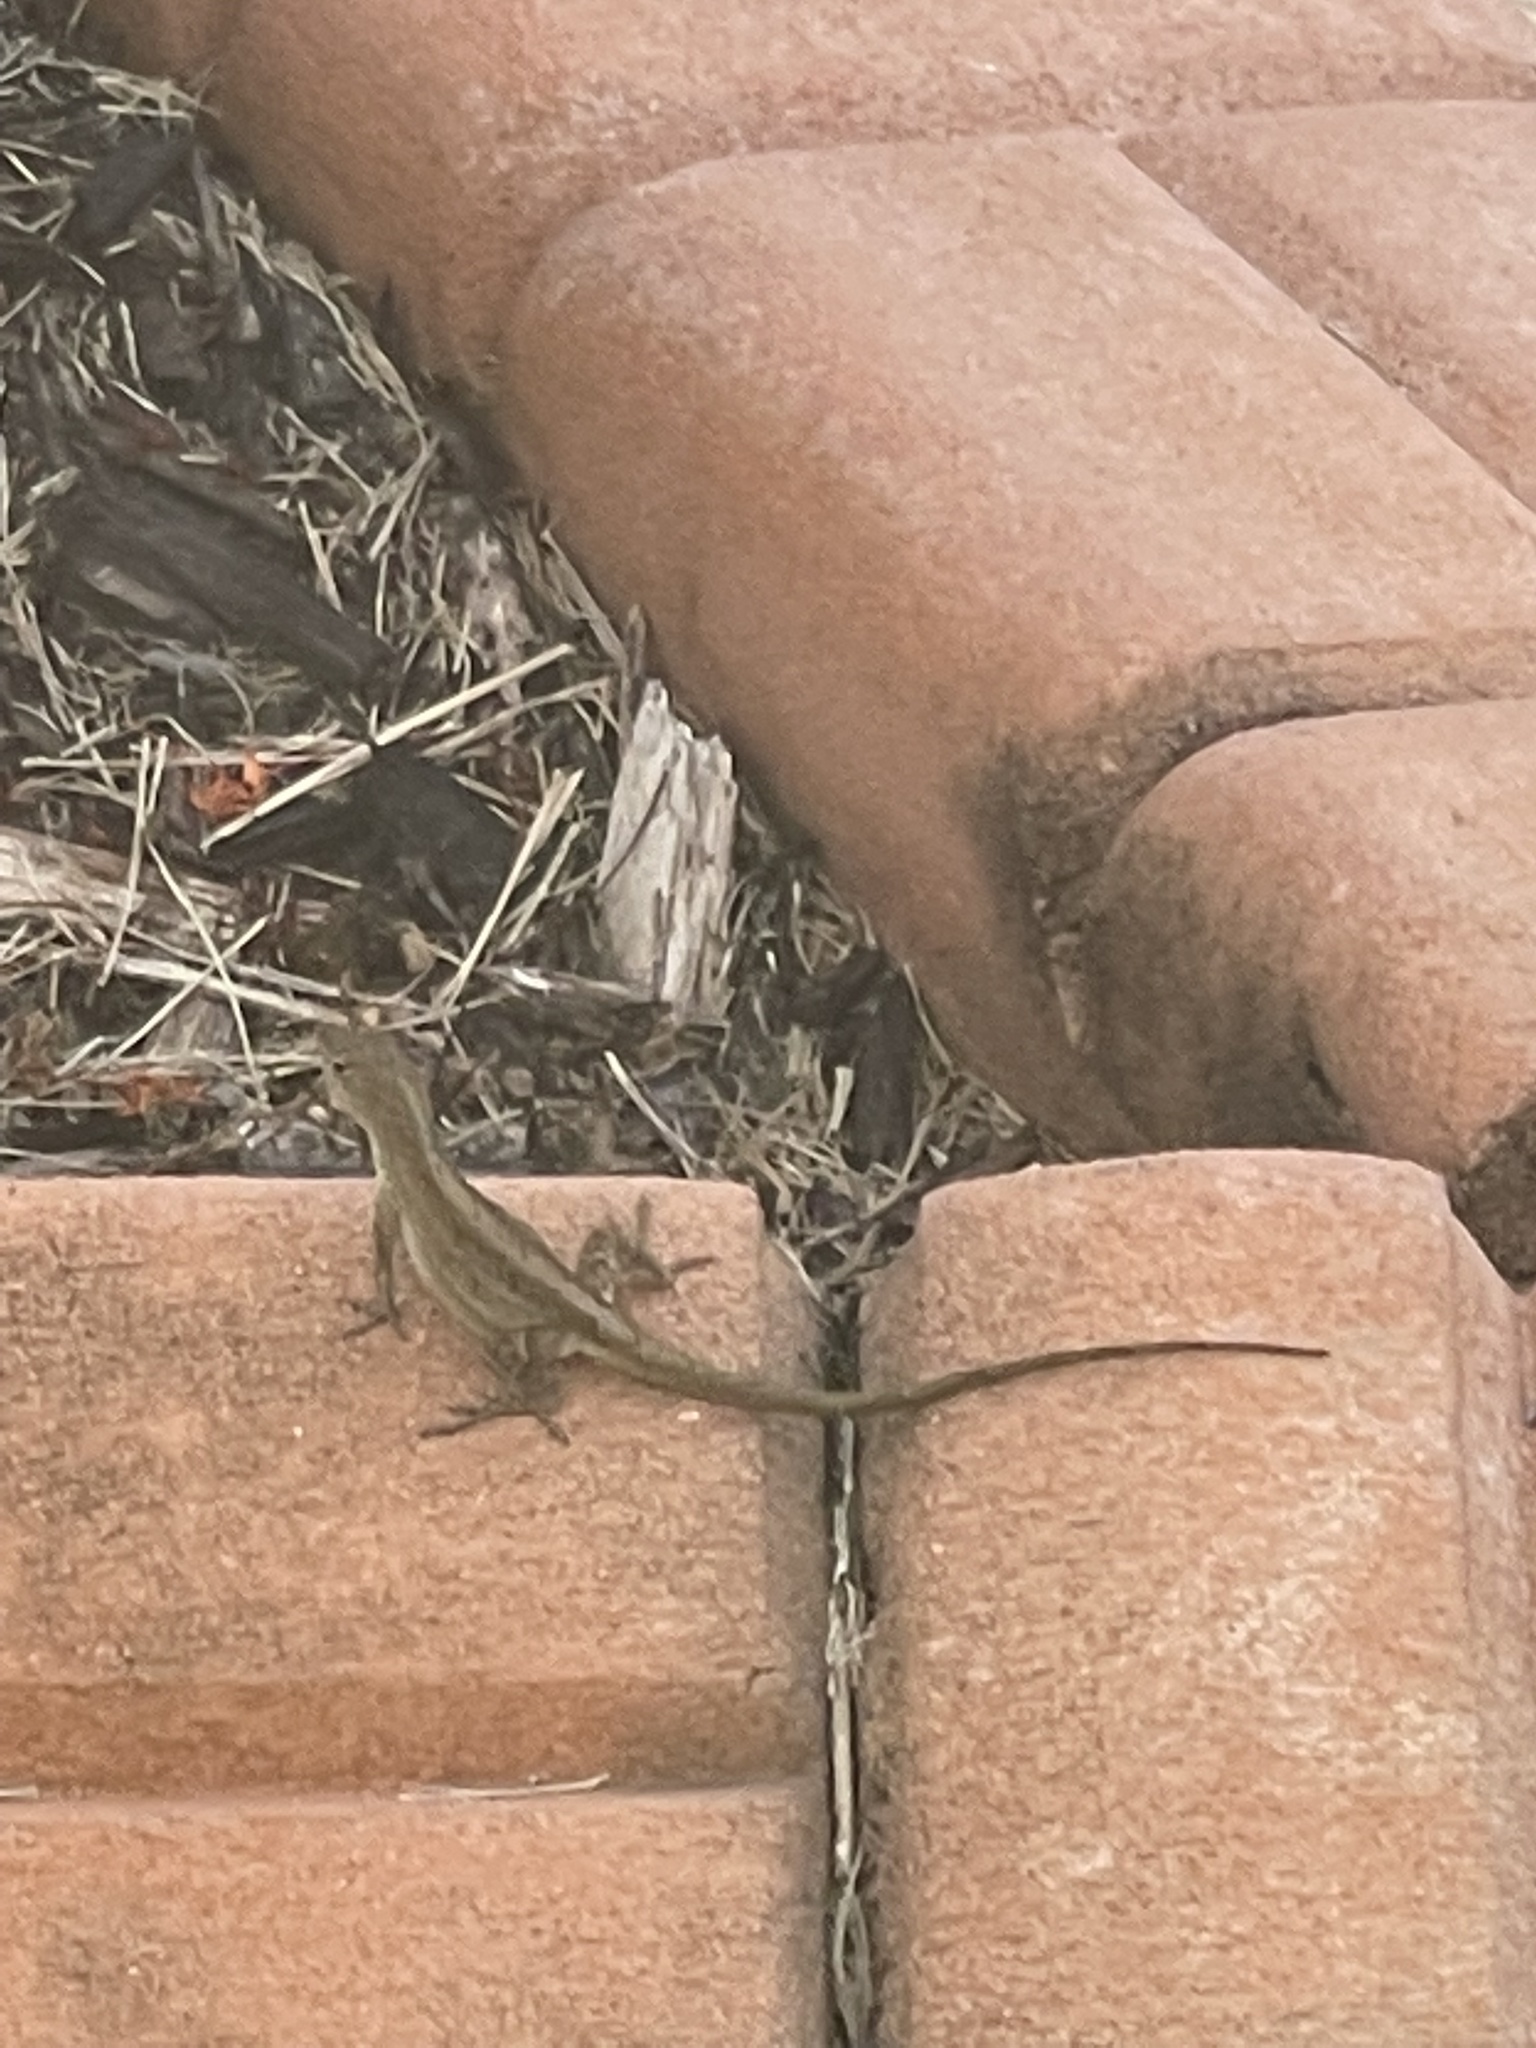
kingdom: Animalia
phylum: Chordata
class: Squamata
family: Dactyloidae
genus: Anolis
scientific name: Anolis sagrei
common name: Brown anole
